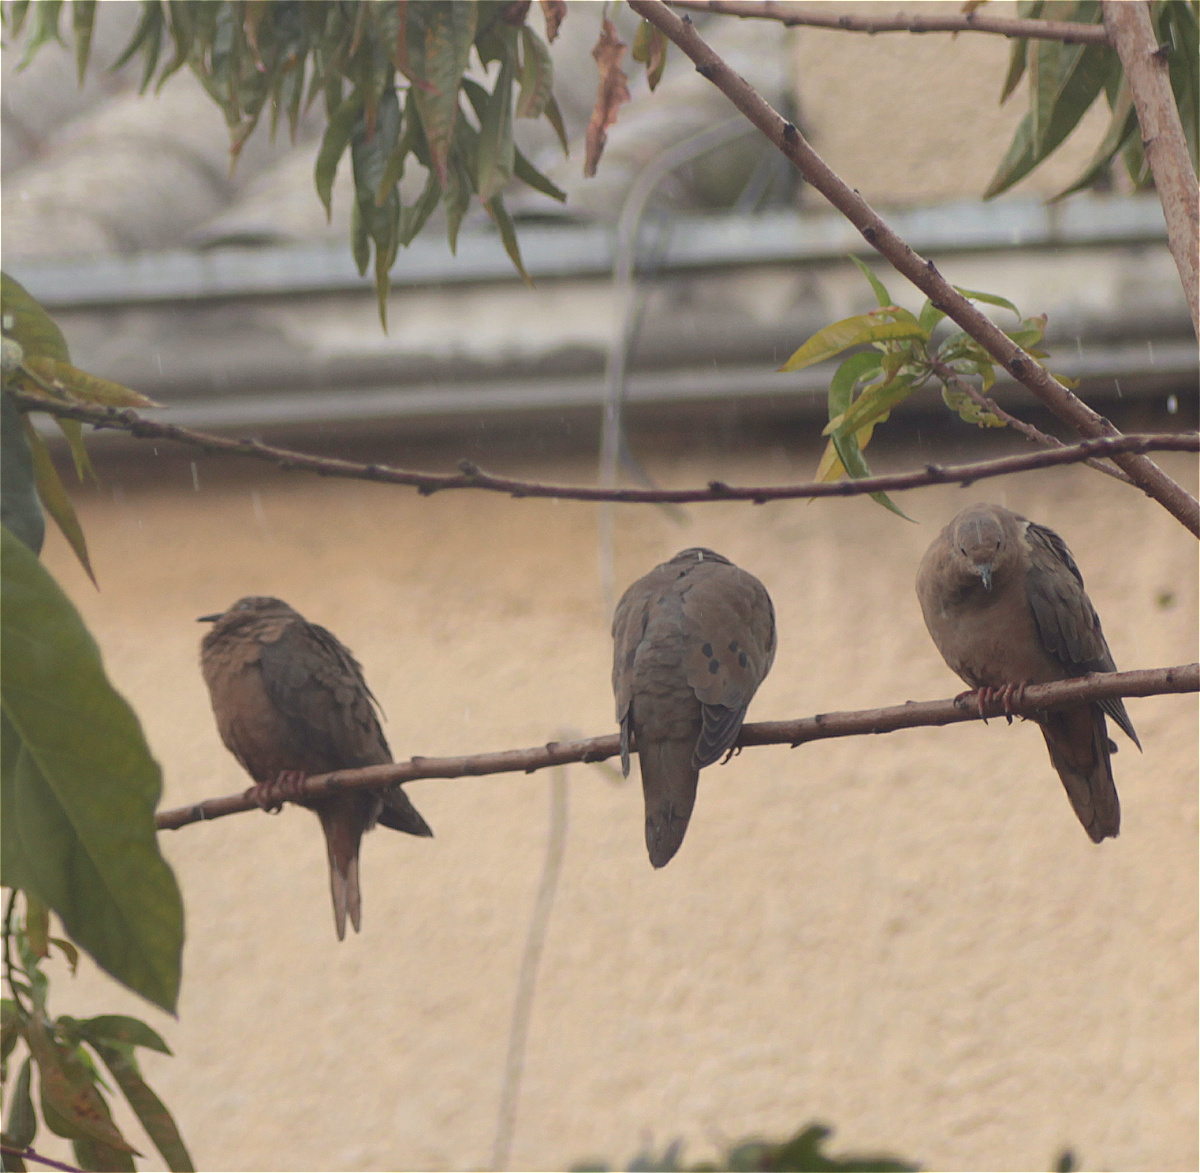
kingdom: Animalia
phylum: Chordata
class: Aves
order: Columbiformes
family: Columbidae
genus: Zenaida
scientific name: Zenaida auriculata
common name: Eared dove
